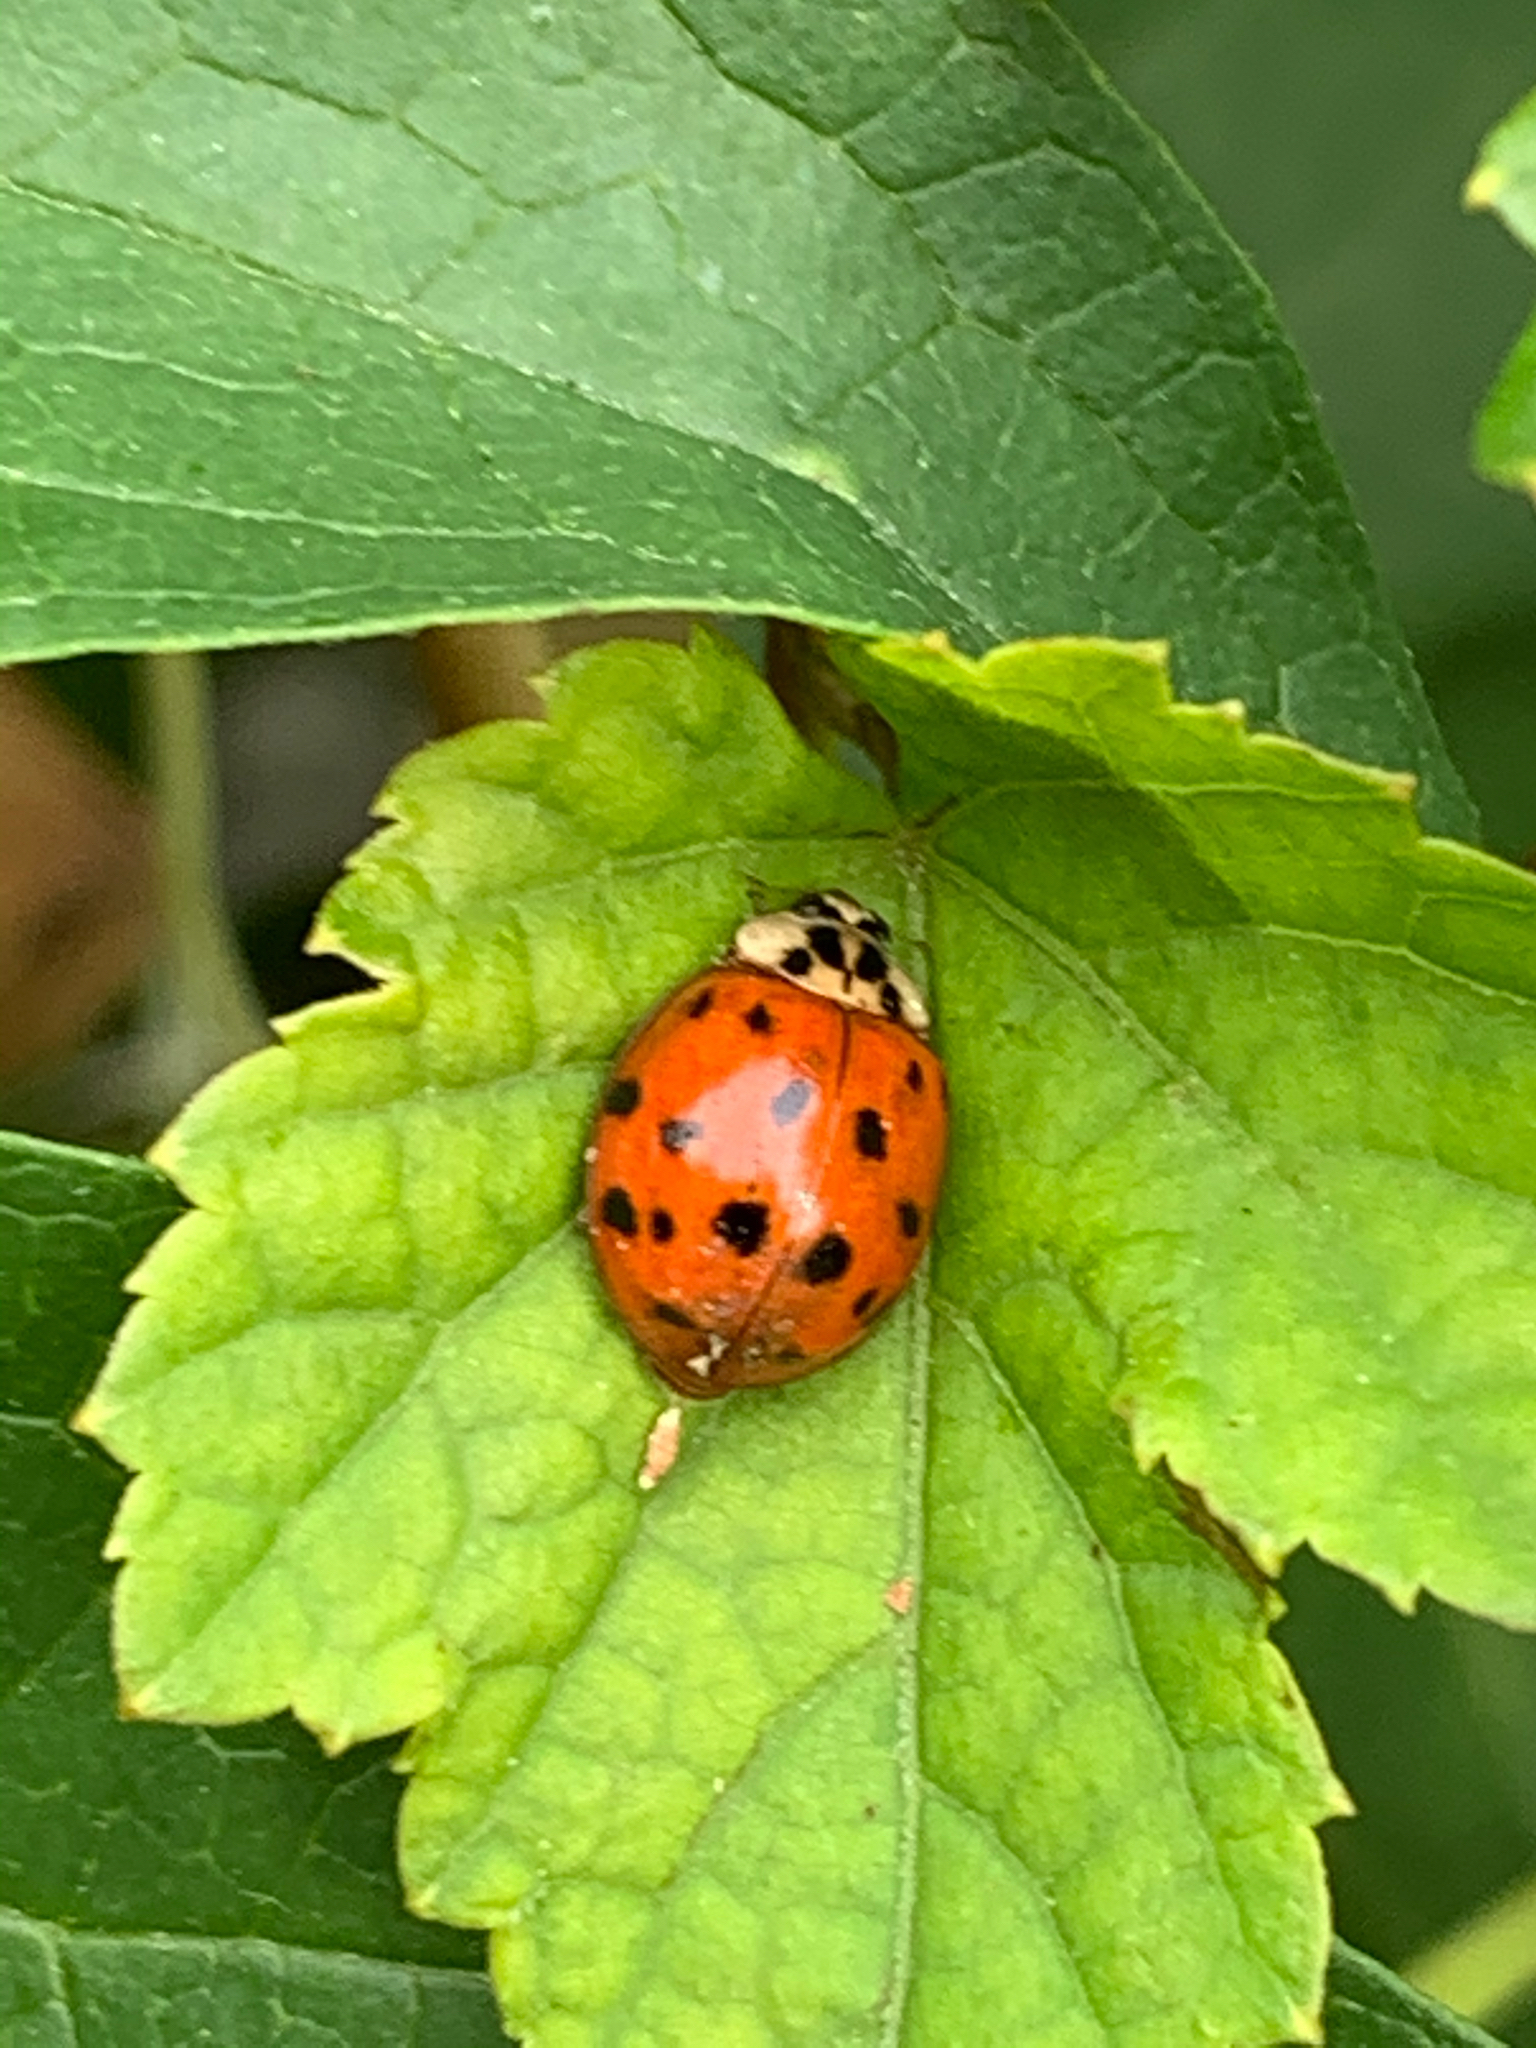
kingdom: Animalia
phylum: Arthropoda
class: Insecta
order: Coleoptera
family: Coccinellidae
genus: Harmonia
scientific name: Harmonia axyridis
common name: Harlequin ladybird
